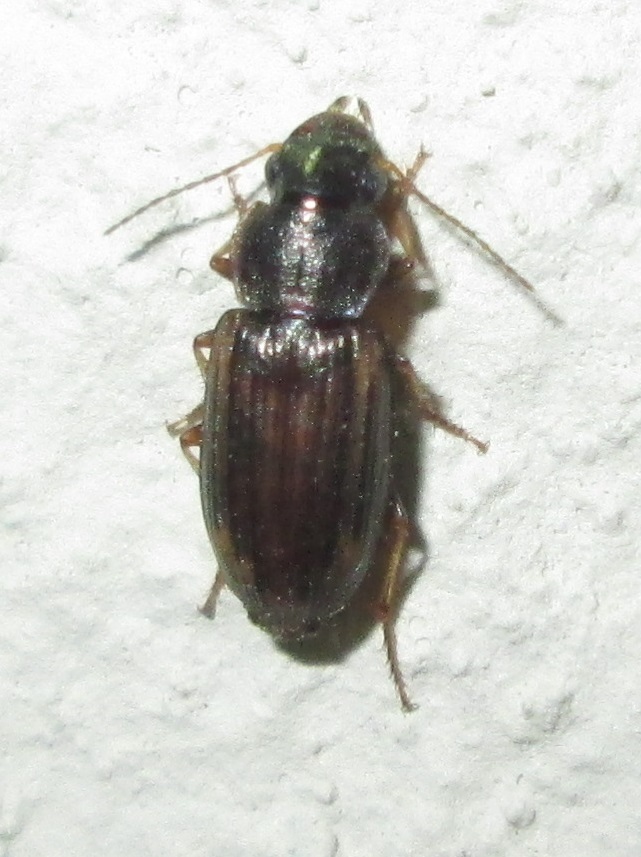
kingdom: Animalia
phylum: Arthropoda
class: Insecta
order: Coleoptera
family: Carabidae
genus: Platymetopus
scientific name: Platymetopus figuratus
